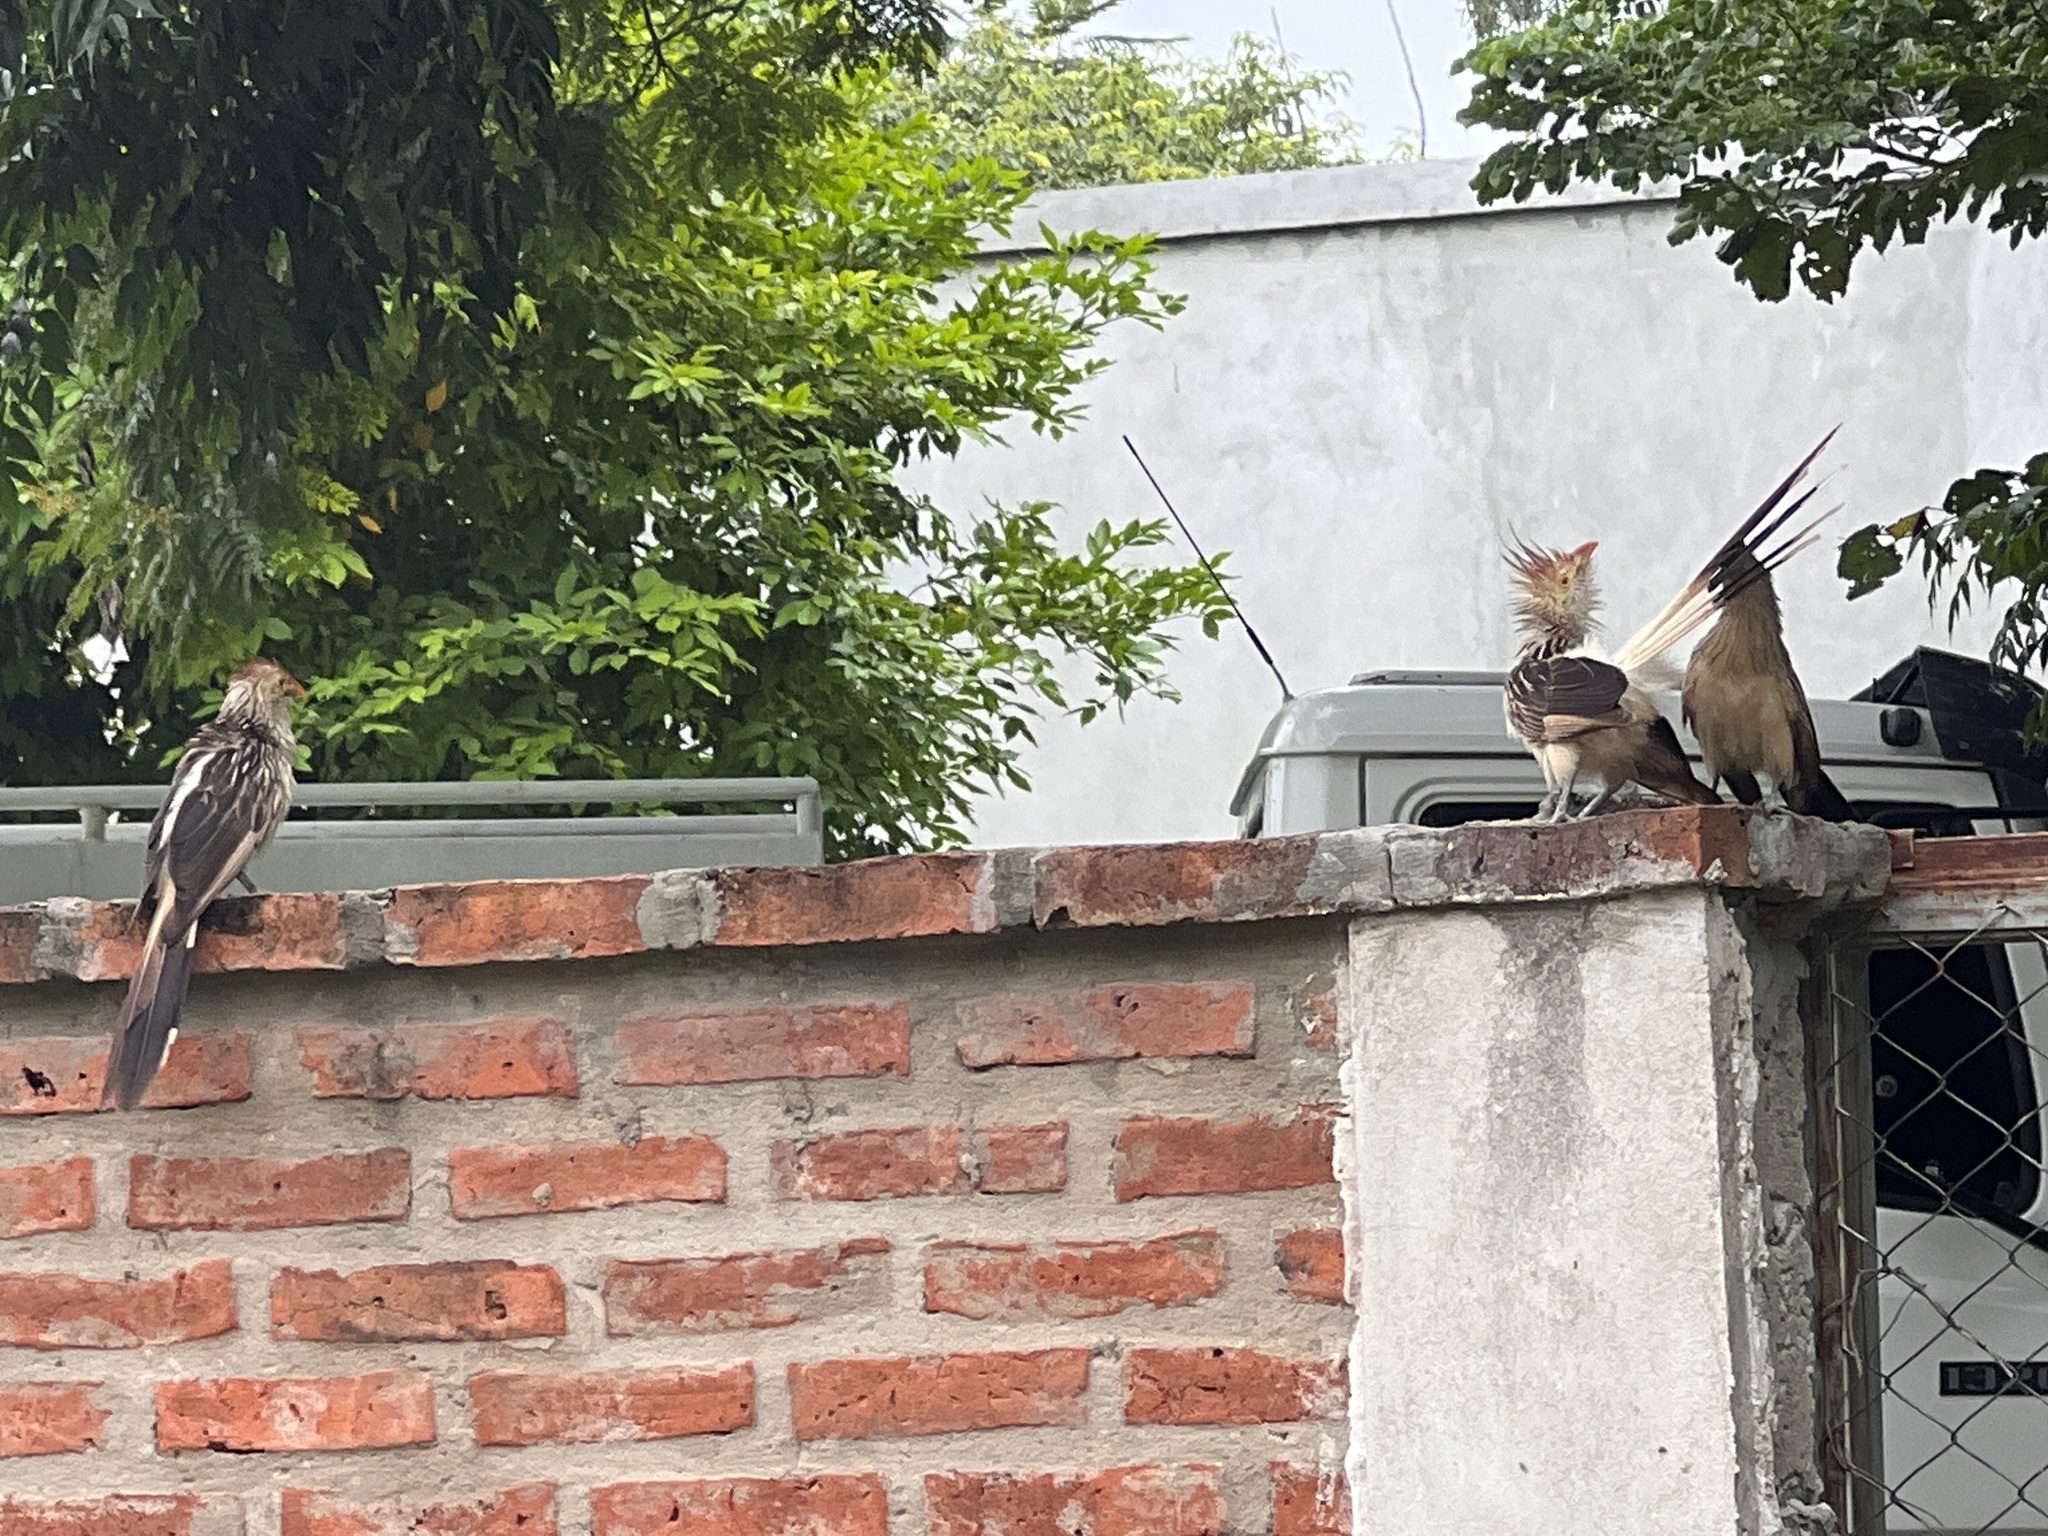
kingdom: Animalia
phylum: Chordata
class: Aves
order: Cuculiformes
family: Cuculidae
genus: Guira
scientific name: Guira guira
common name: Guira cuckoo
